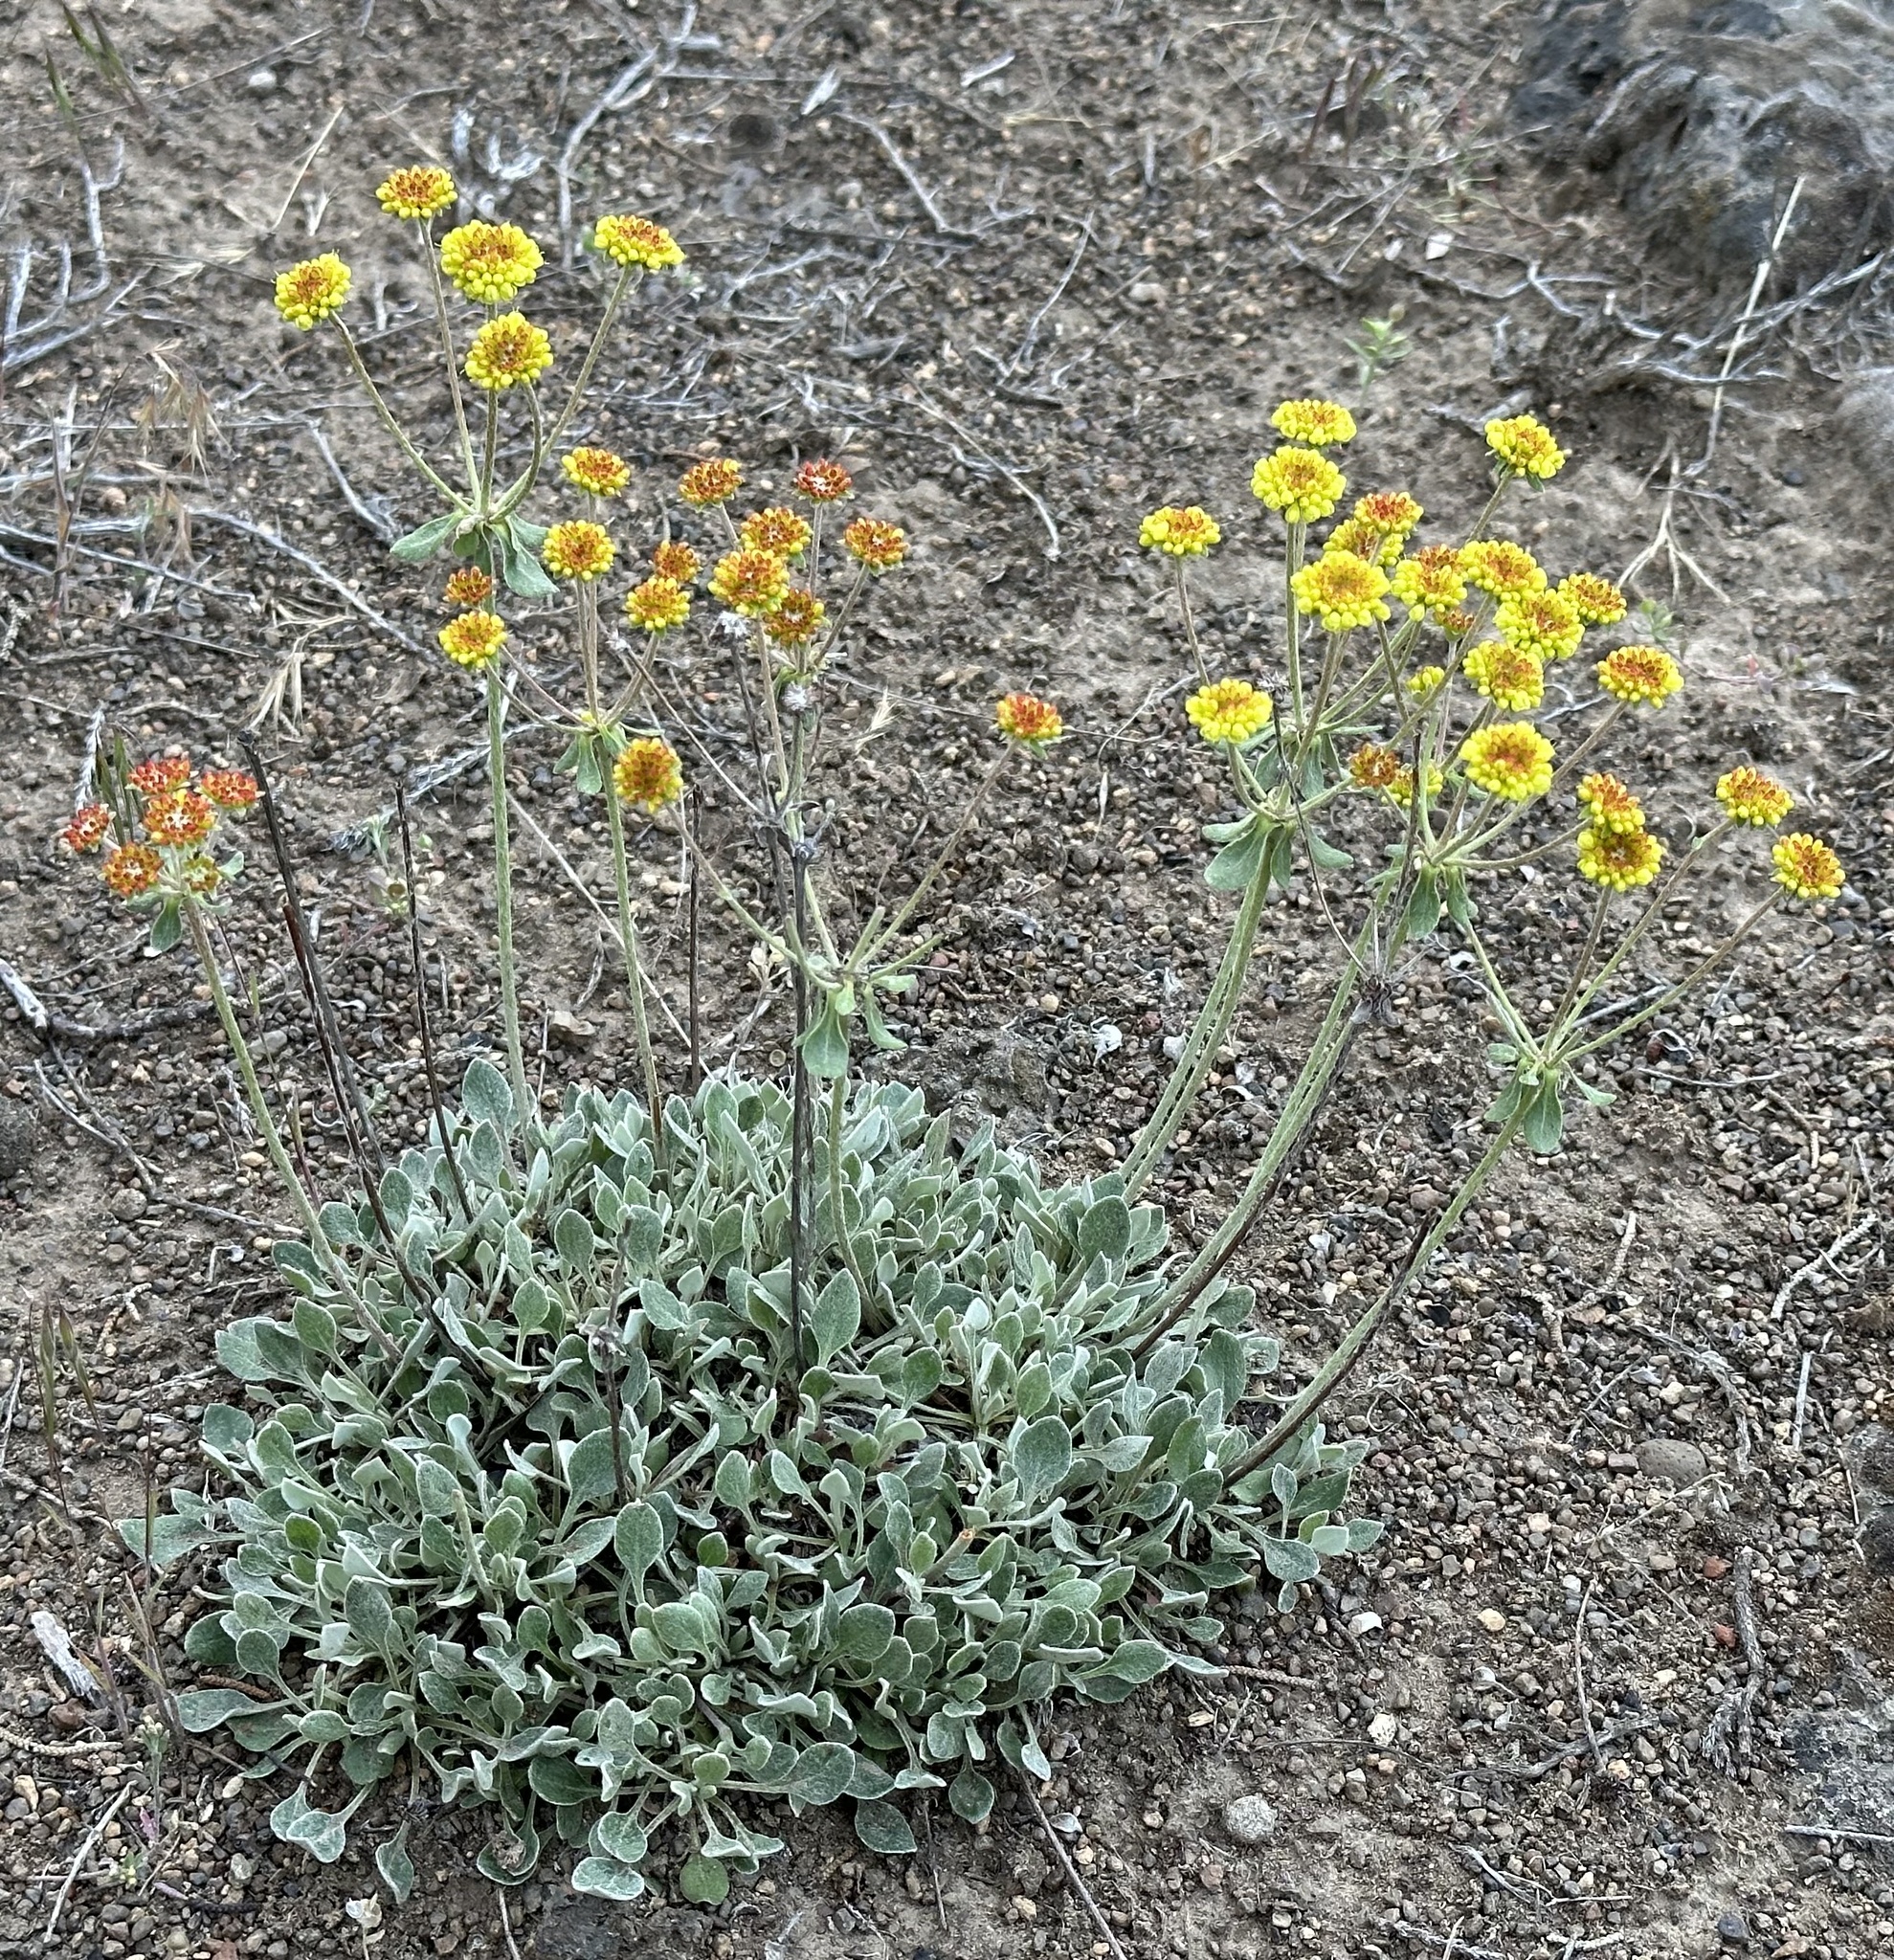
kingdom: Plantae
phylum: Tracheophyta
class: Magnoliopsida
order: Caryophyllales
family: Polygonaceae
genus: Eriogonum
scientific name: Eriogonum umbellatum
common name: Sulfur-buckwheat
